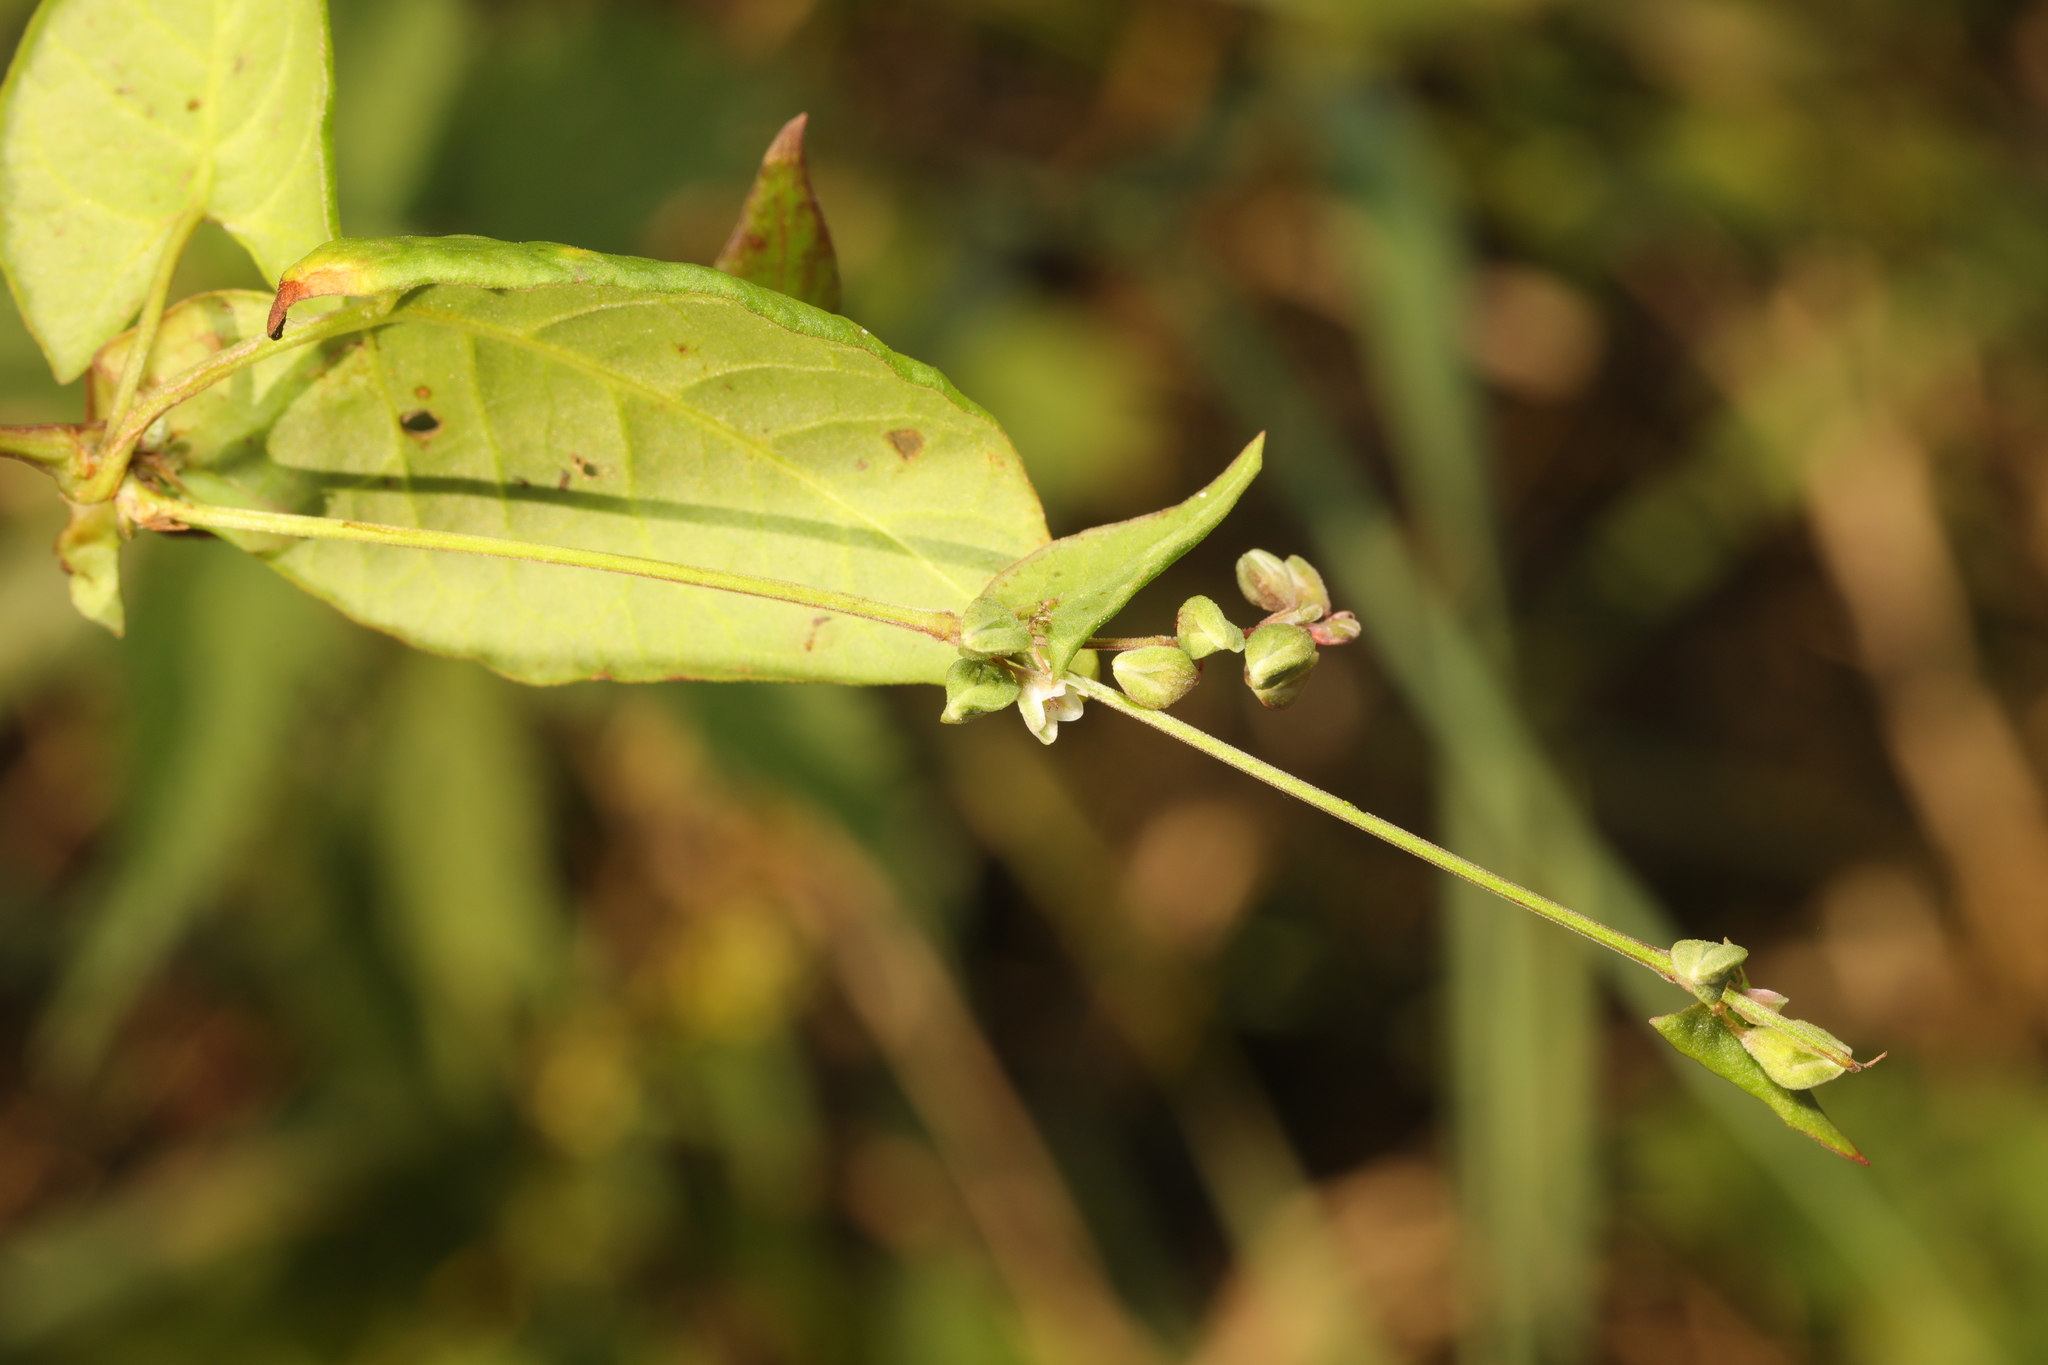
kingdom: Plantae
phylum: Tracheophyta
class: Magnoliopsida
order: Caryophyllales
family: Polygonaceae
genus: Fallopia
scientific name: Fallopia convolvulus
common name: Black bindweed
